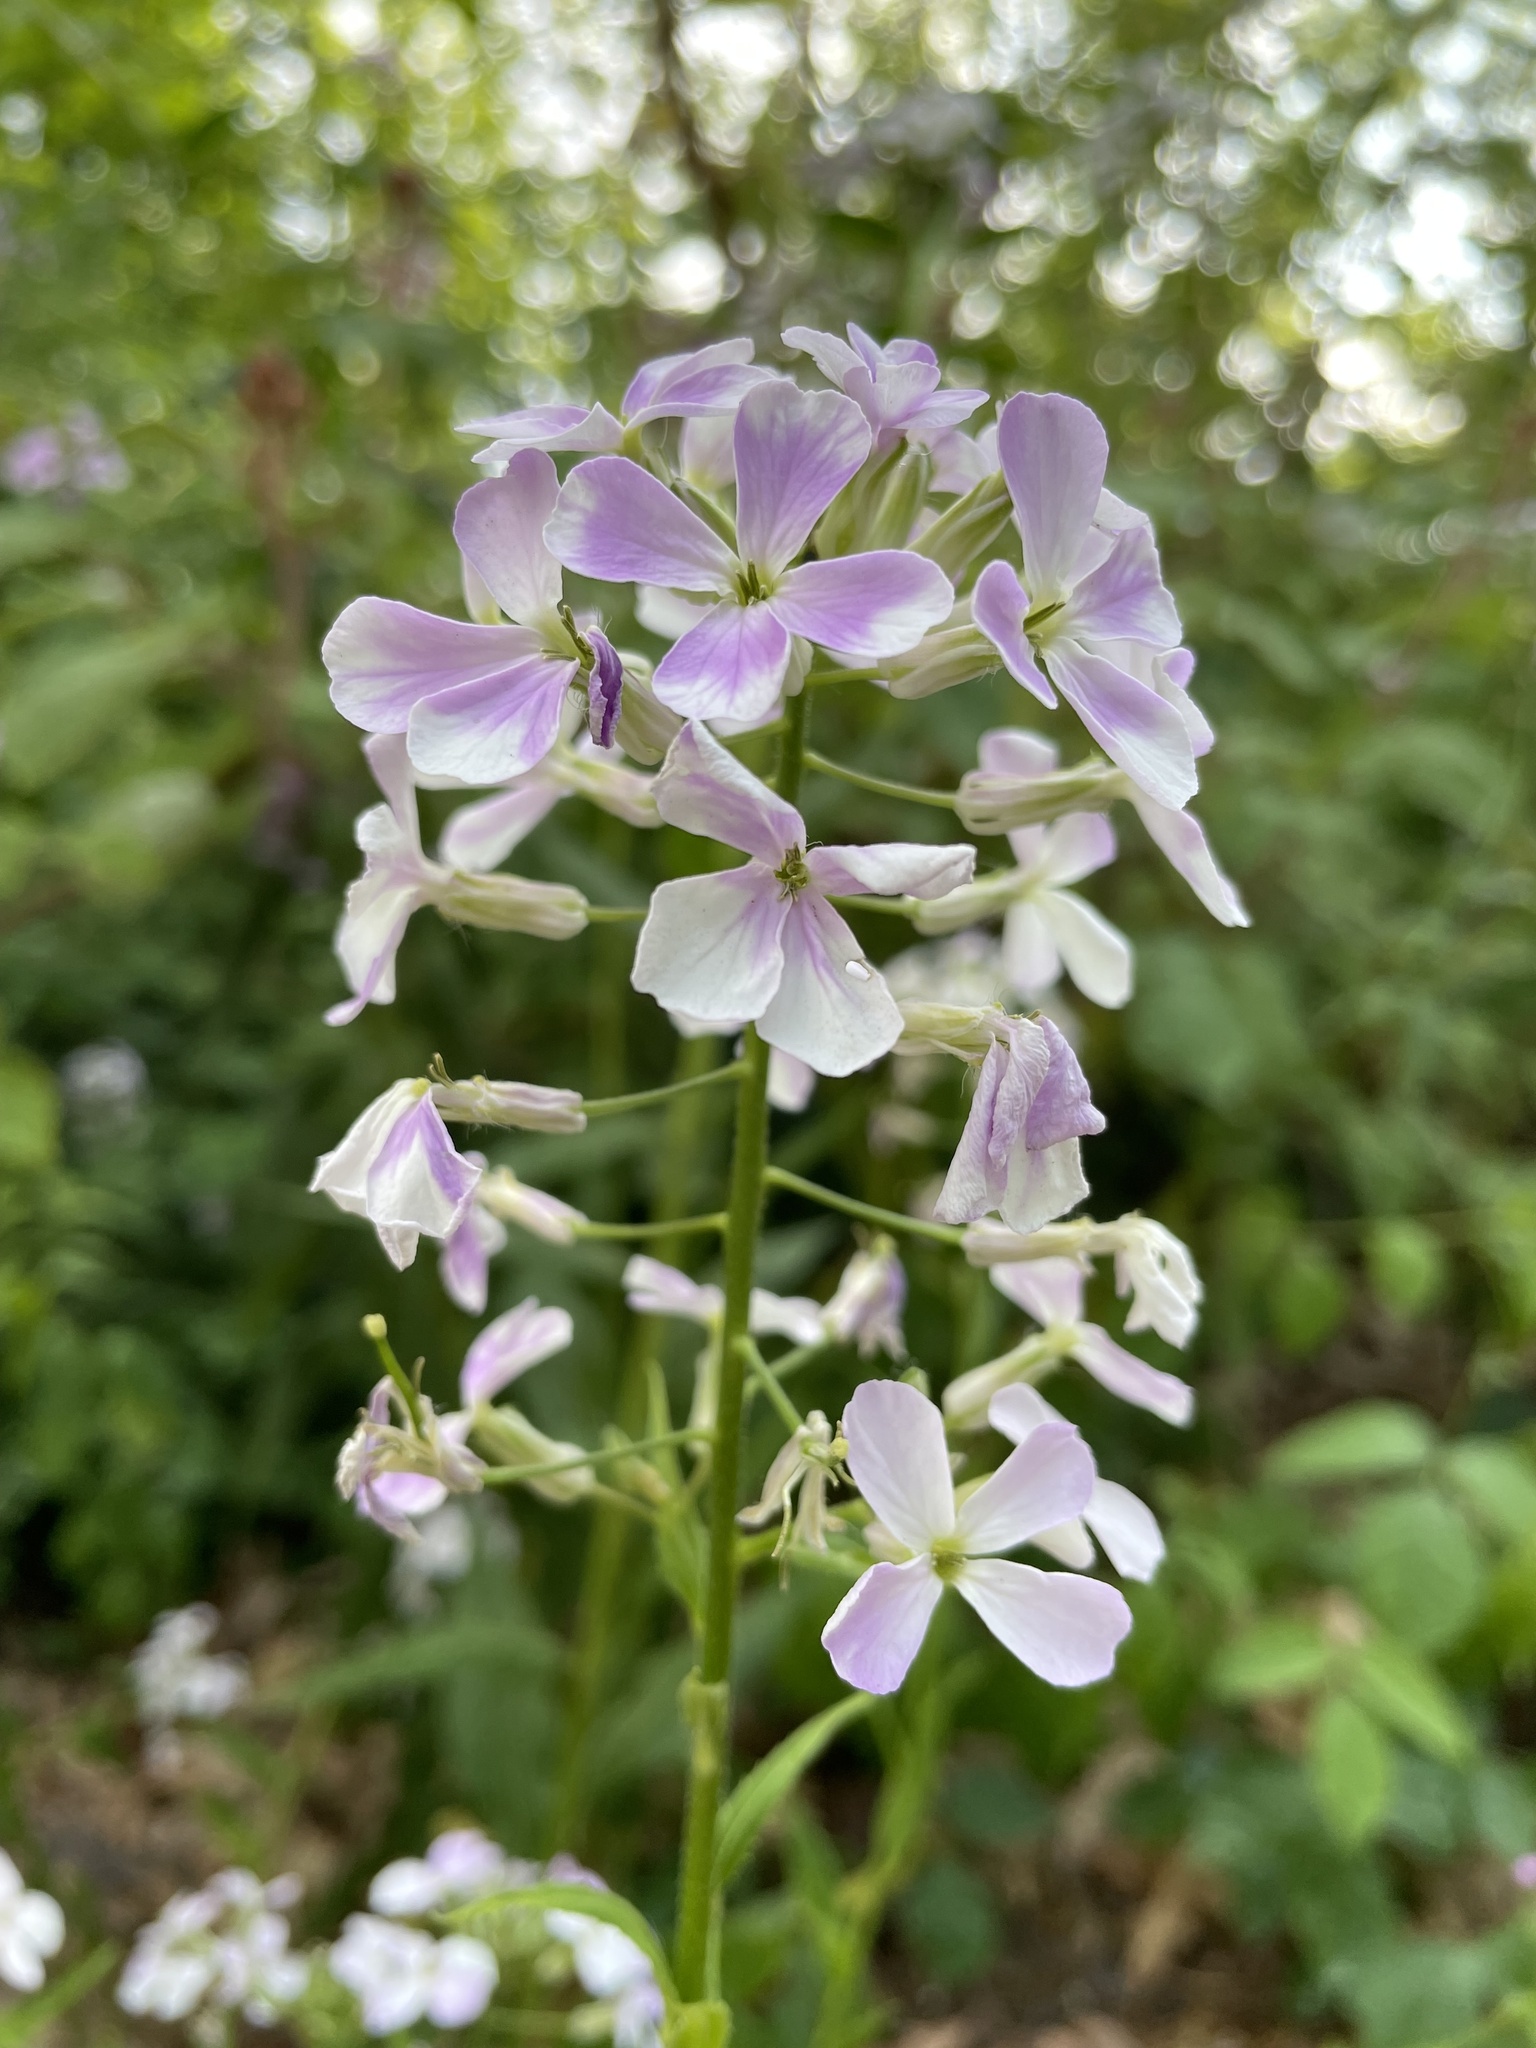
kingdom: Plantae
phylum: Tracheophyta
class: Magnoliopsida
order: Brassicales
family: Brassicaceae
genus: Hesperis
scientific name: Hesperis matronalis
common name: Dame's-violet
